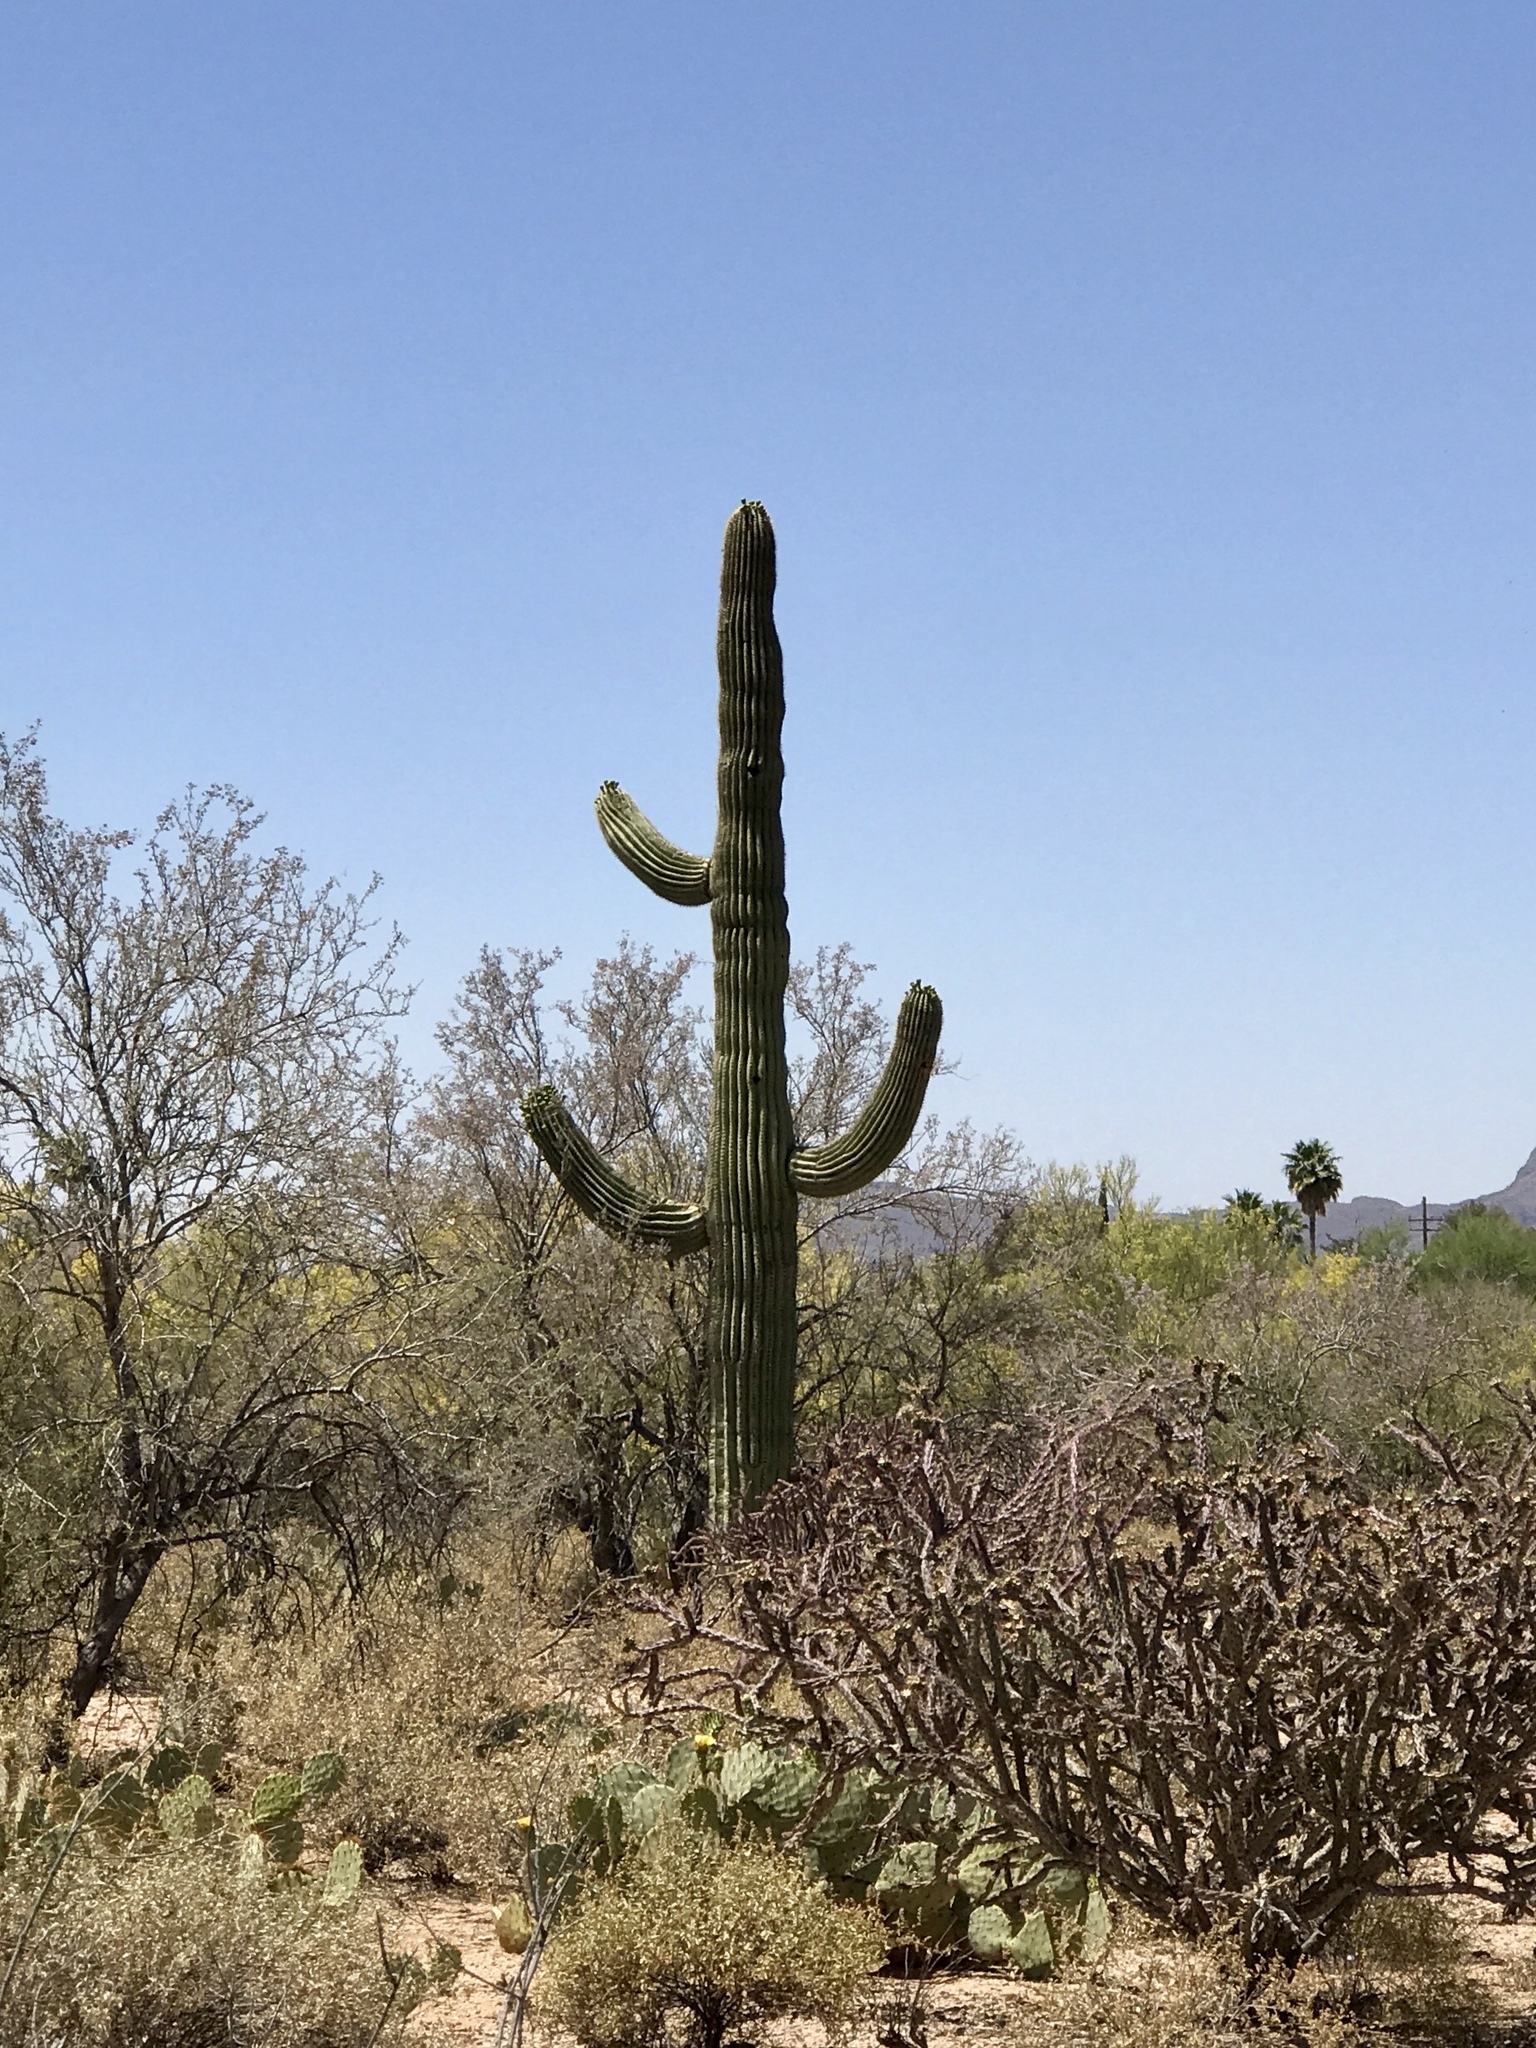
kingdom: Plantae
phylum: Tracheophyta
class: Magnoliopsida
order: Caryophyllales
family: Cactaceae
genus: Carnegiea
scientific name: Carnegiea gigantea
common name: Saguaro
